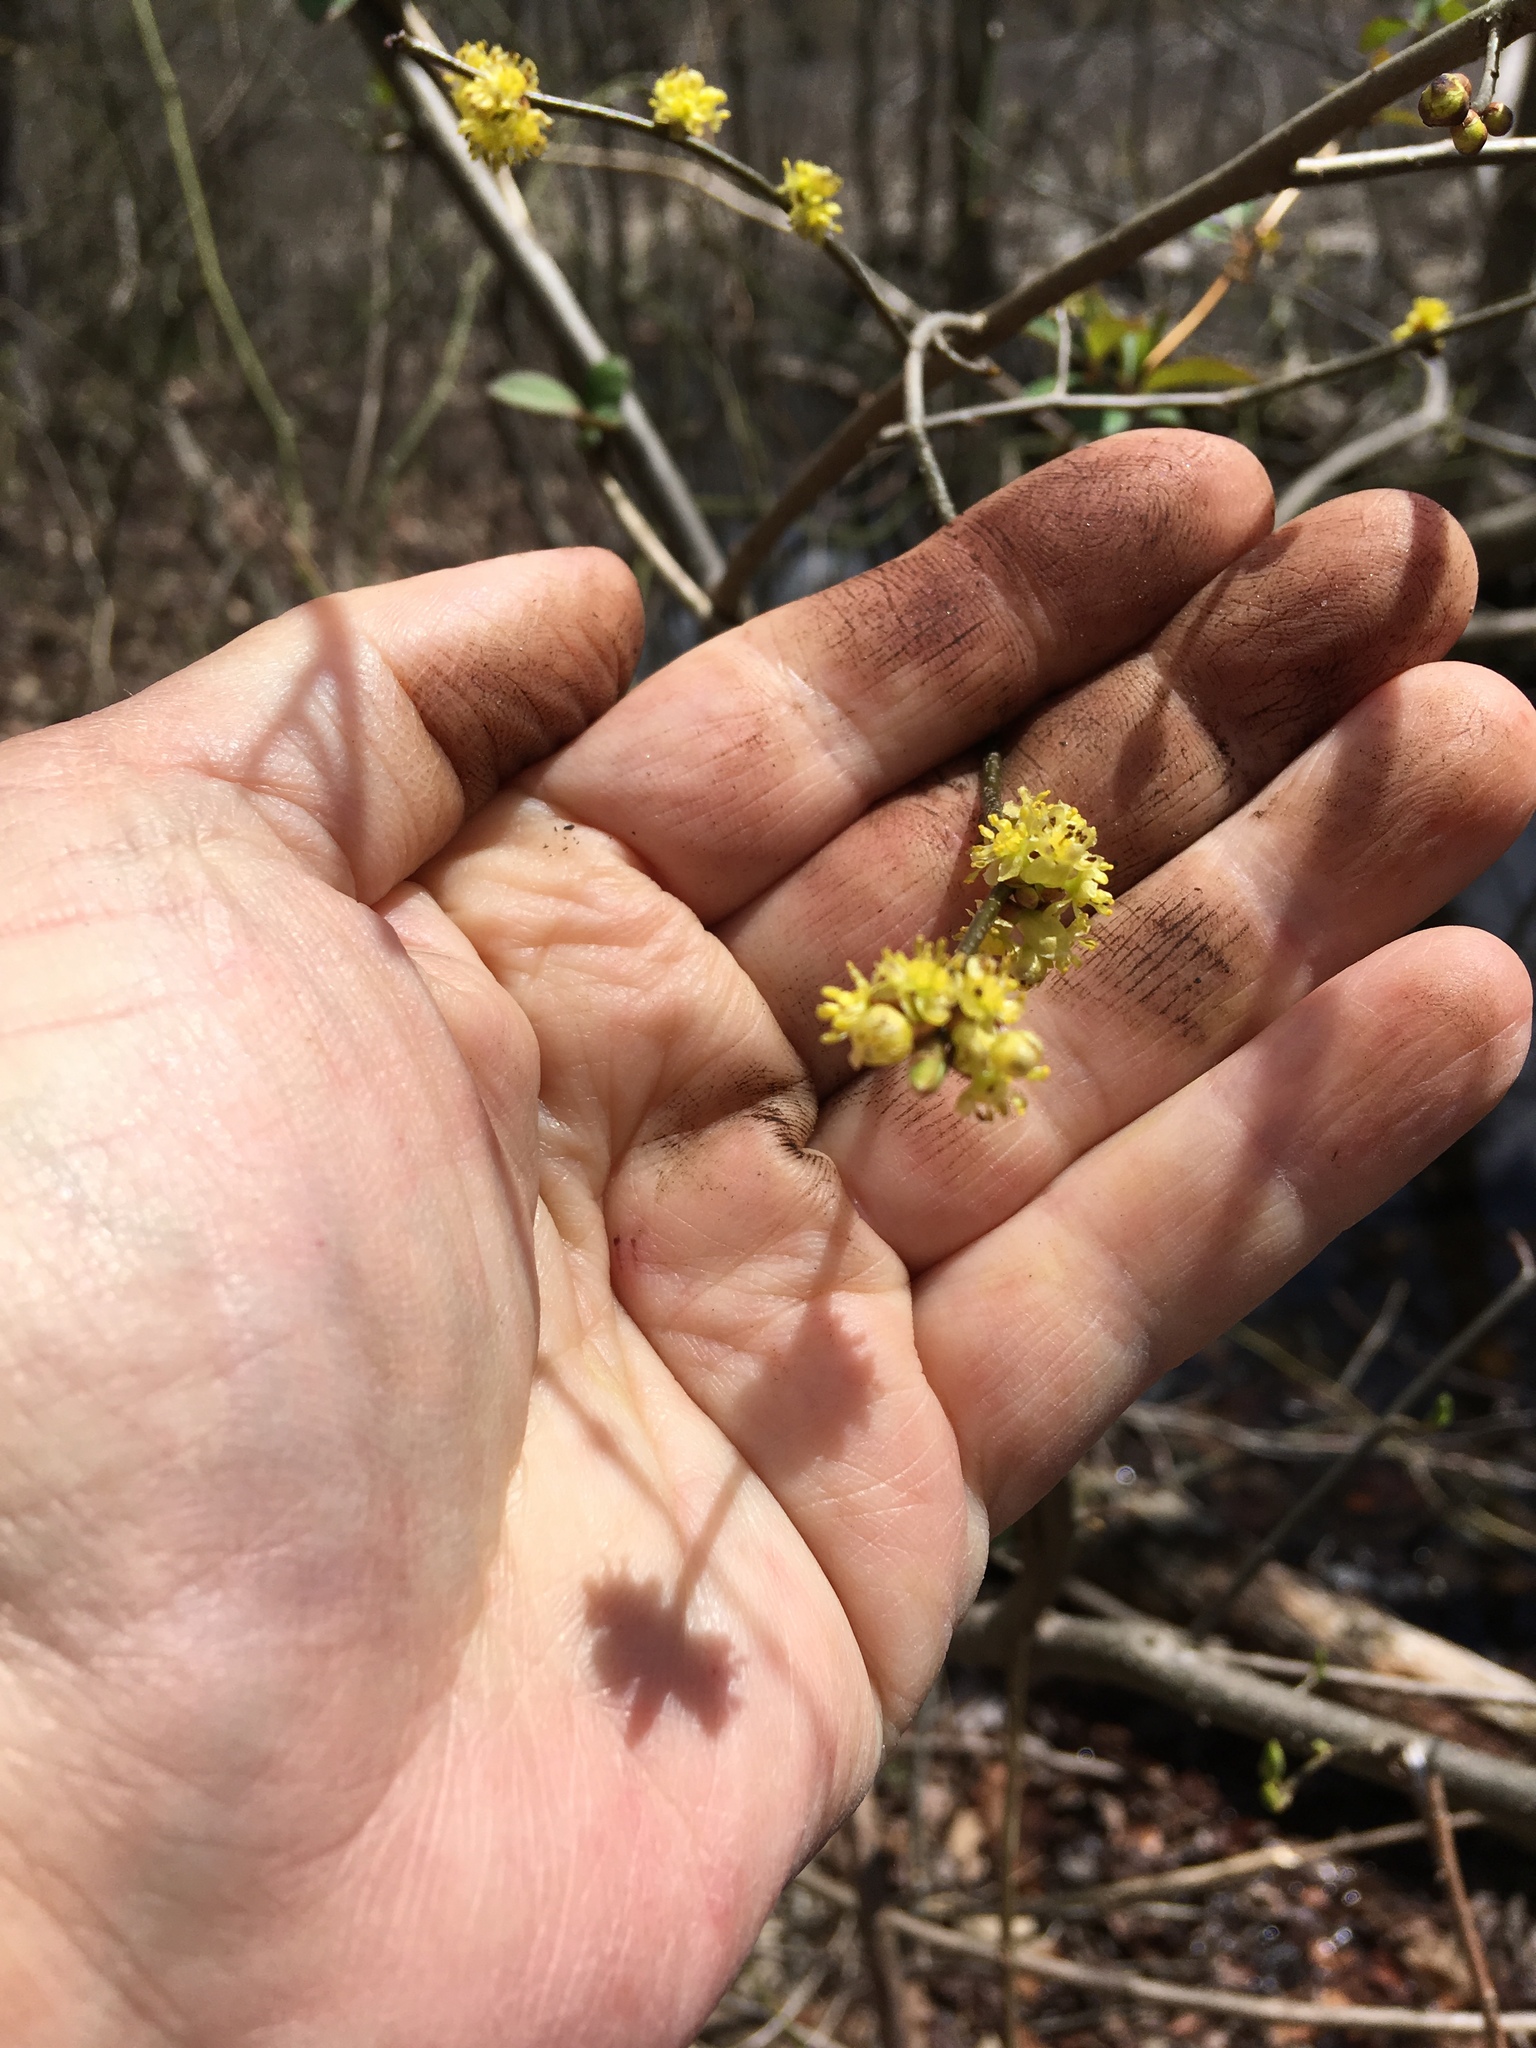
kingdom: Plantae
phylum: Tracheophyta
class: Magnoliopsida
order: Laurales
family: Lauraceae
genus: Lindera
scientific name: Lindera benzoin
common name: Spicebush
